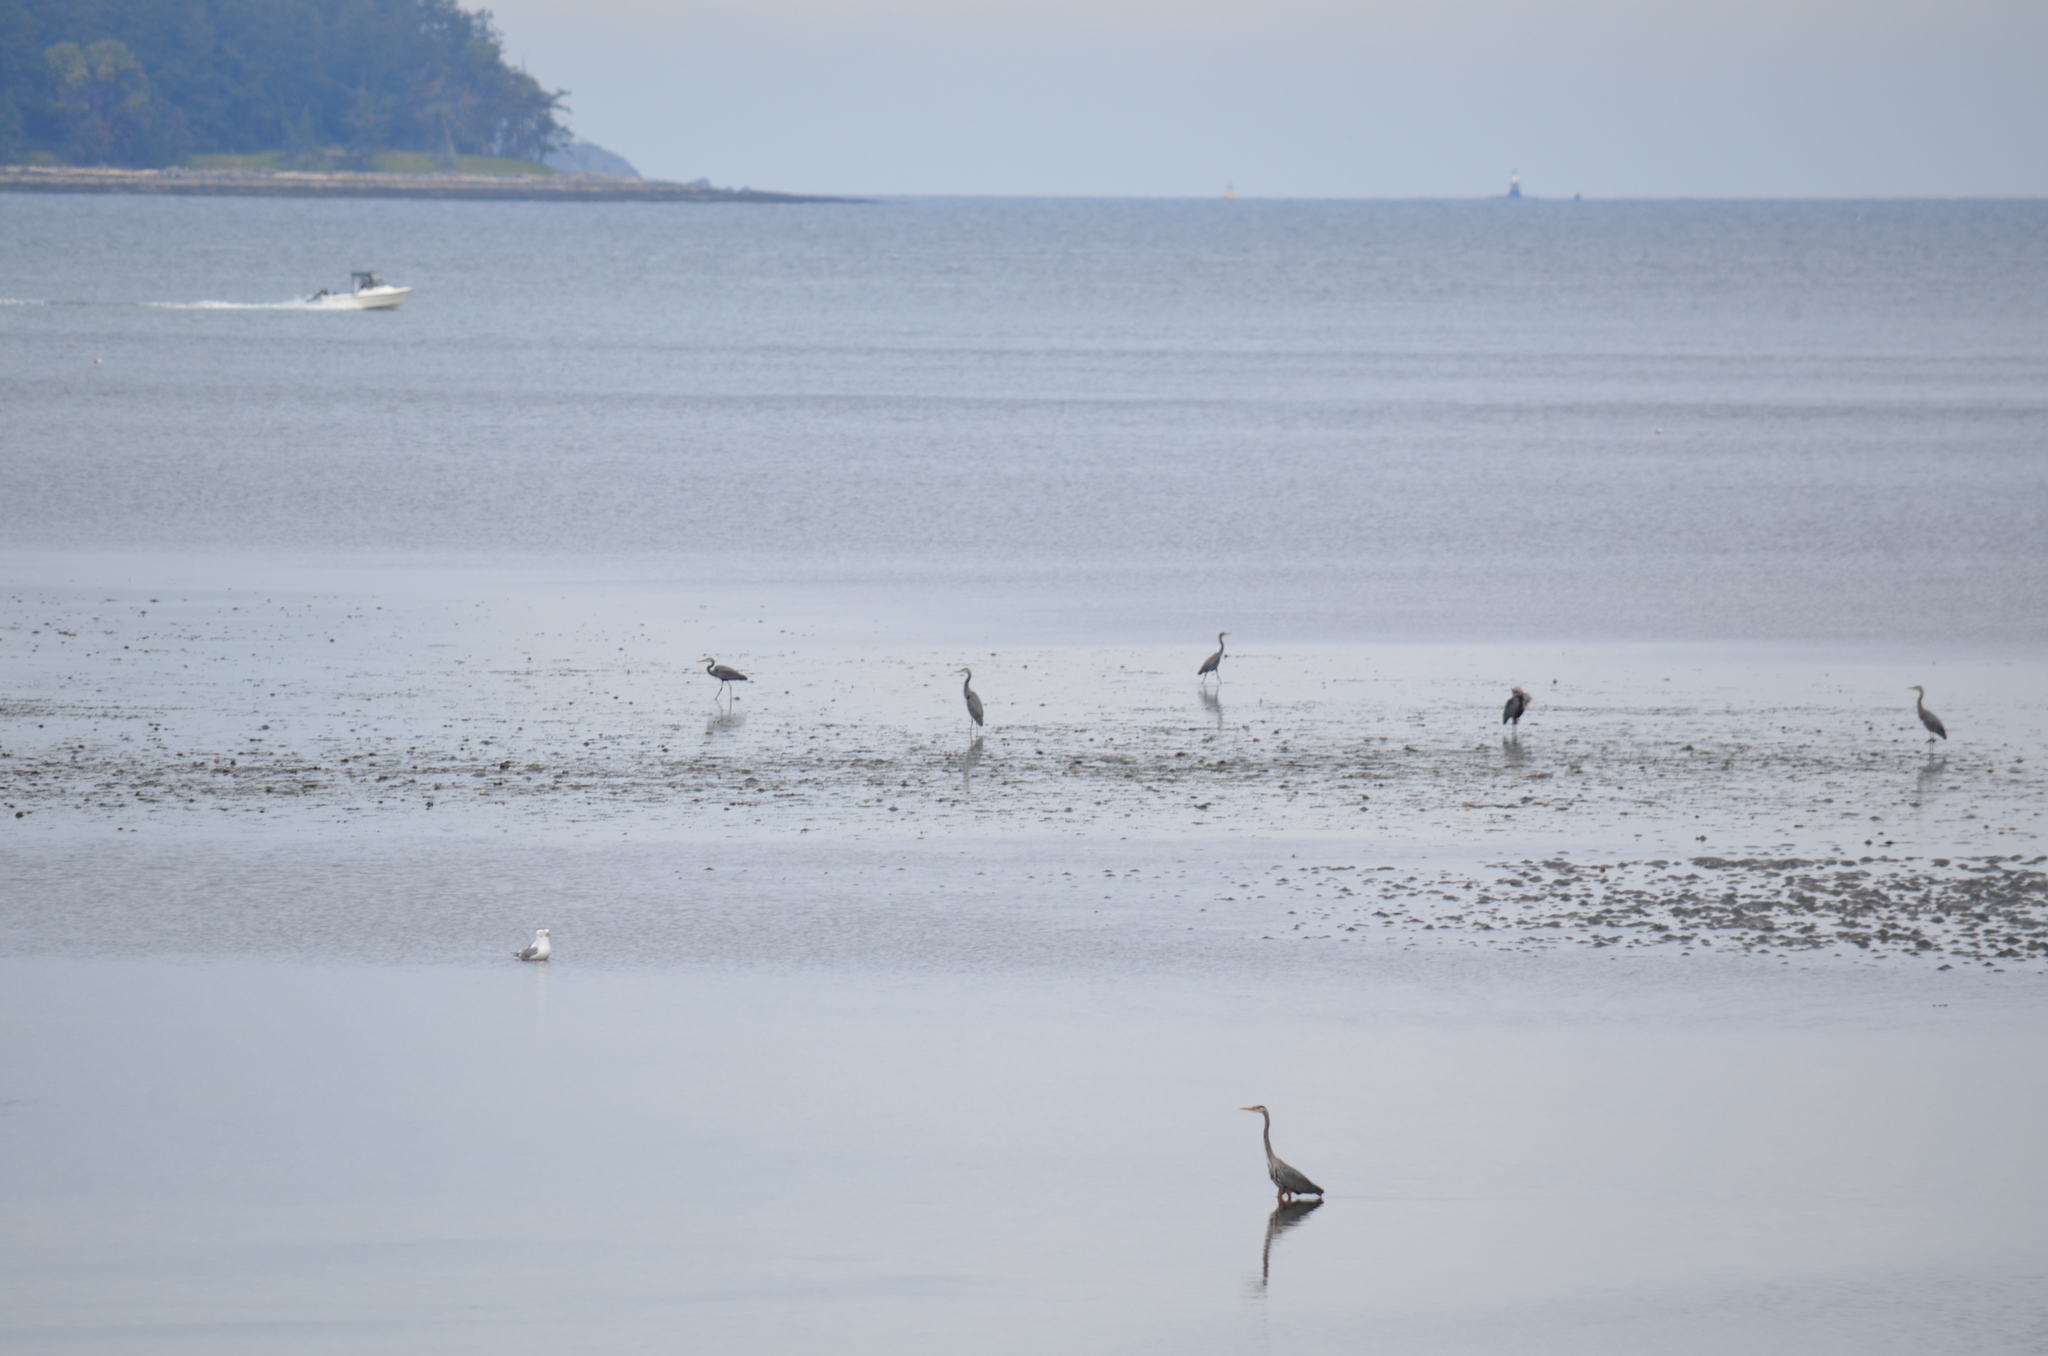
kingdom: Animalia
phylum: Chordata
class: Aves
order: Pelecaniformes
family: Ardeidae
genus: Ardea
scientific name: Ardea herodias
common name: Great blue heron
